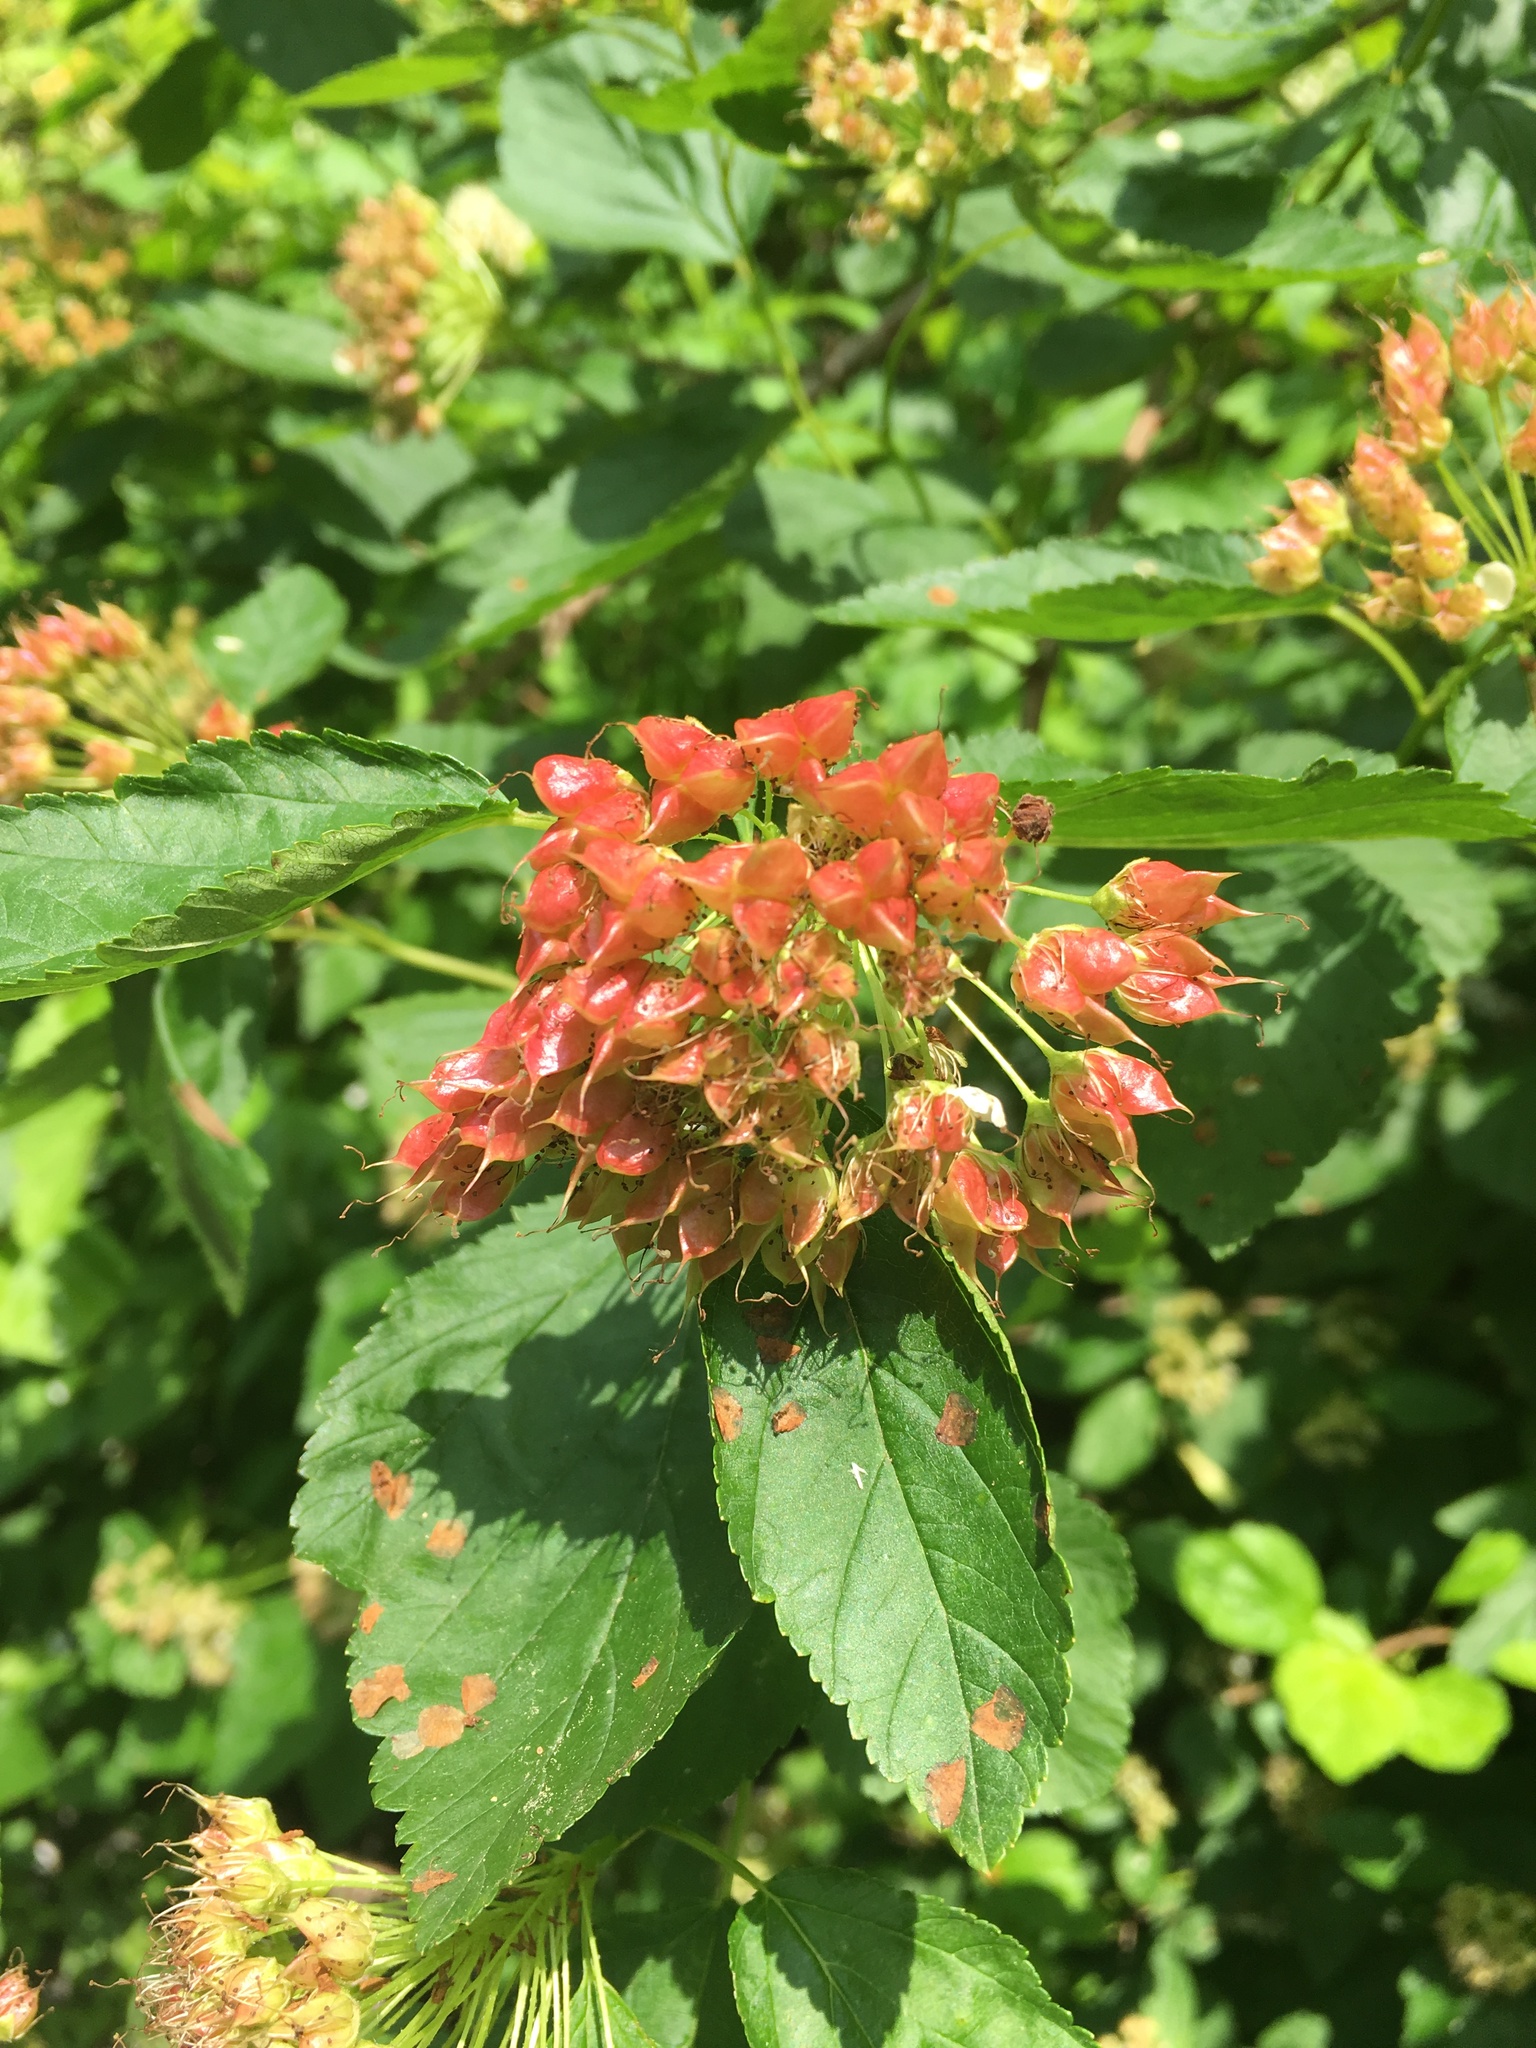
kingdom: Plantae
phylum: Tracheophyta
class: Magnoliopsida
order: Rosales
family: Rosaceae
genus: Physocarpus
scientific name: Physocarpus opulifolius
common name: Ninebark
